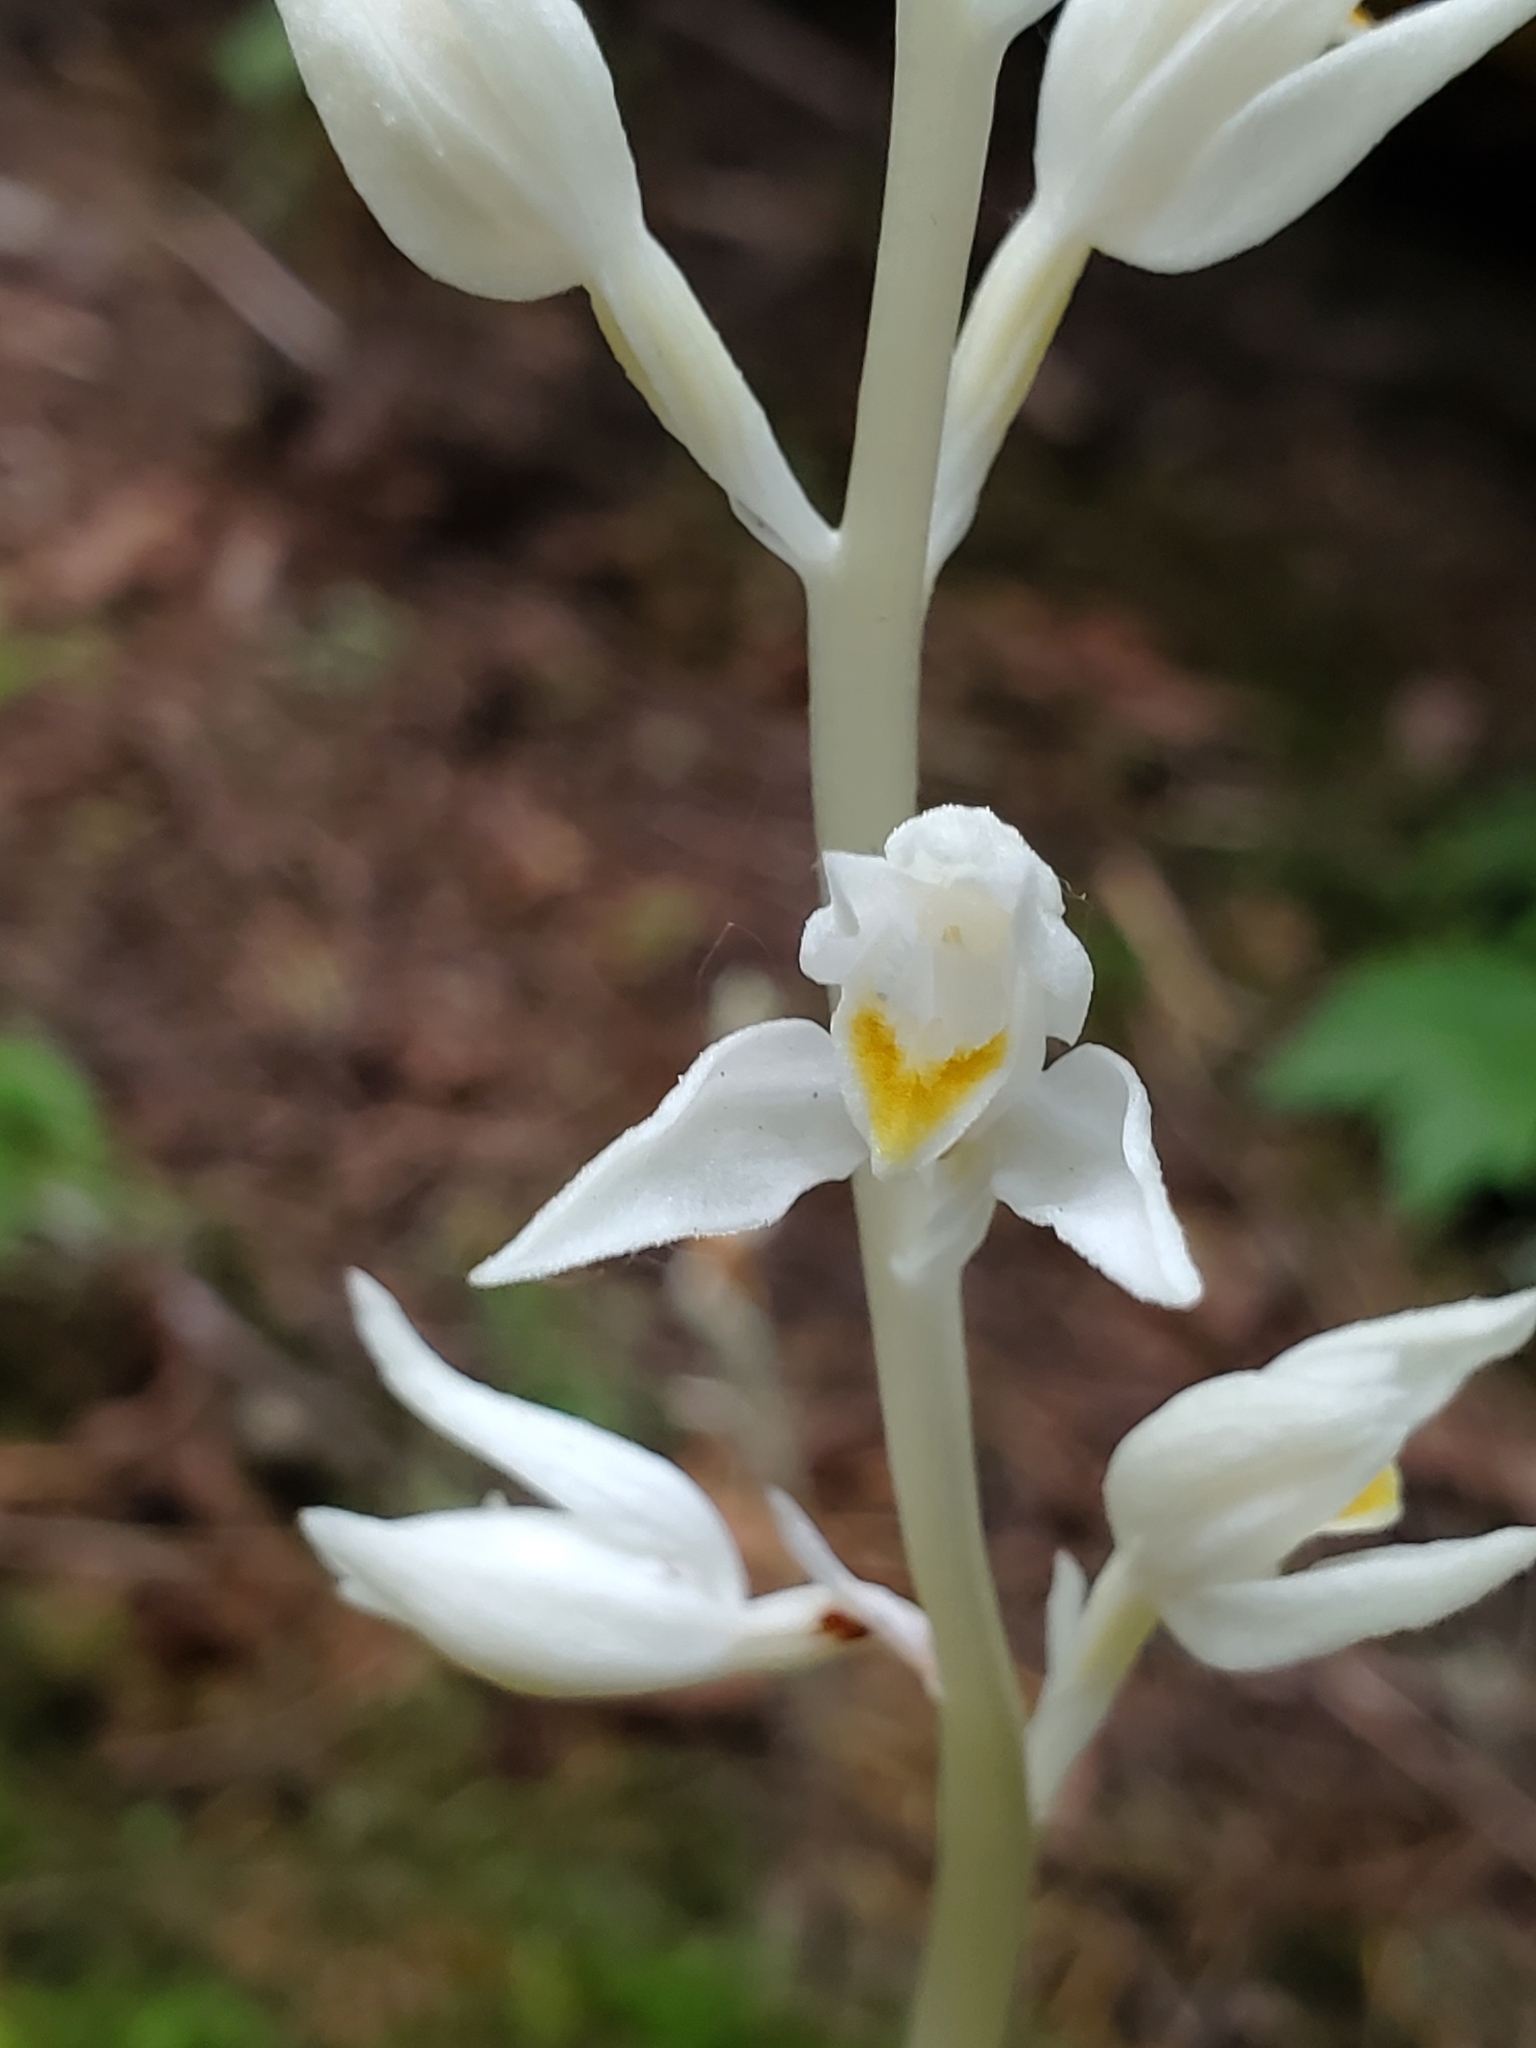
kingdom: Plantae
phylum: Tracheophyta
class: Liliopsida
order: Asparagales
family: Orchidaceae
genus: Cephalanthera
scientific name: Cephalanthera austiniae
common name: Phantom orchid
